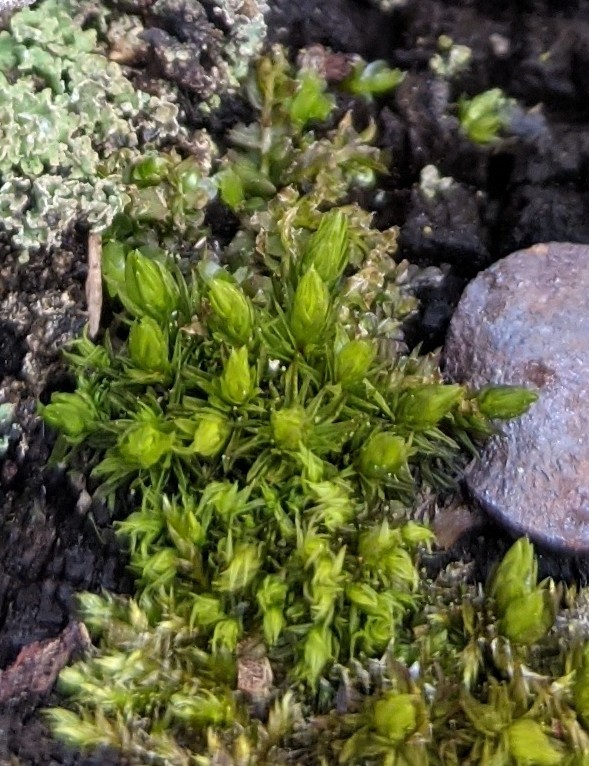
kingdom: Plantae
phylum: Bryophyta
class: Bryopsida
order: Orthotrichales
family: Orthotrichaceae
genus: Ulota
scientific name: Ulota crispa
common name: Crisped pincushion moss
